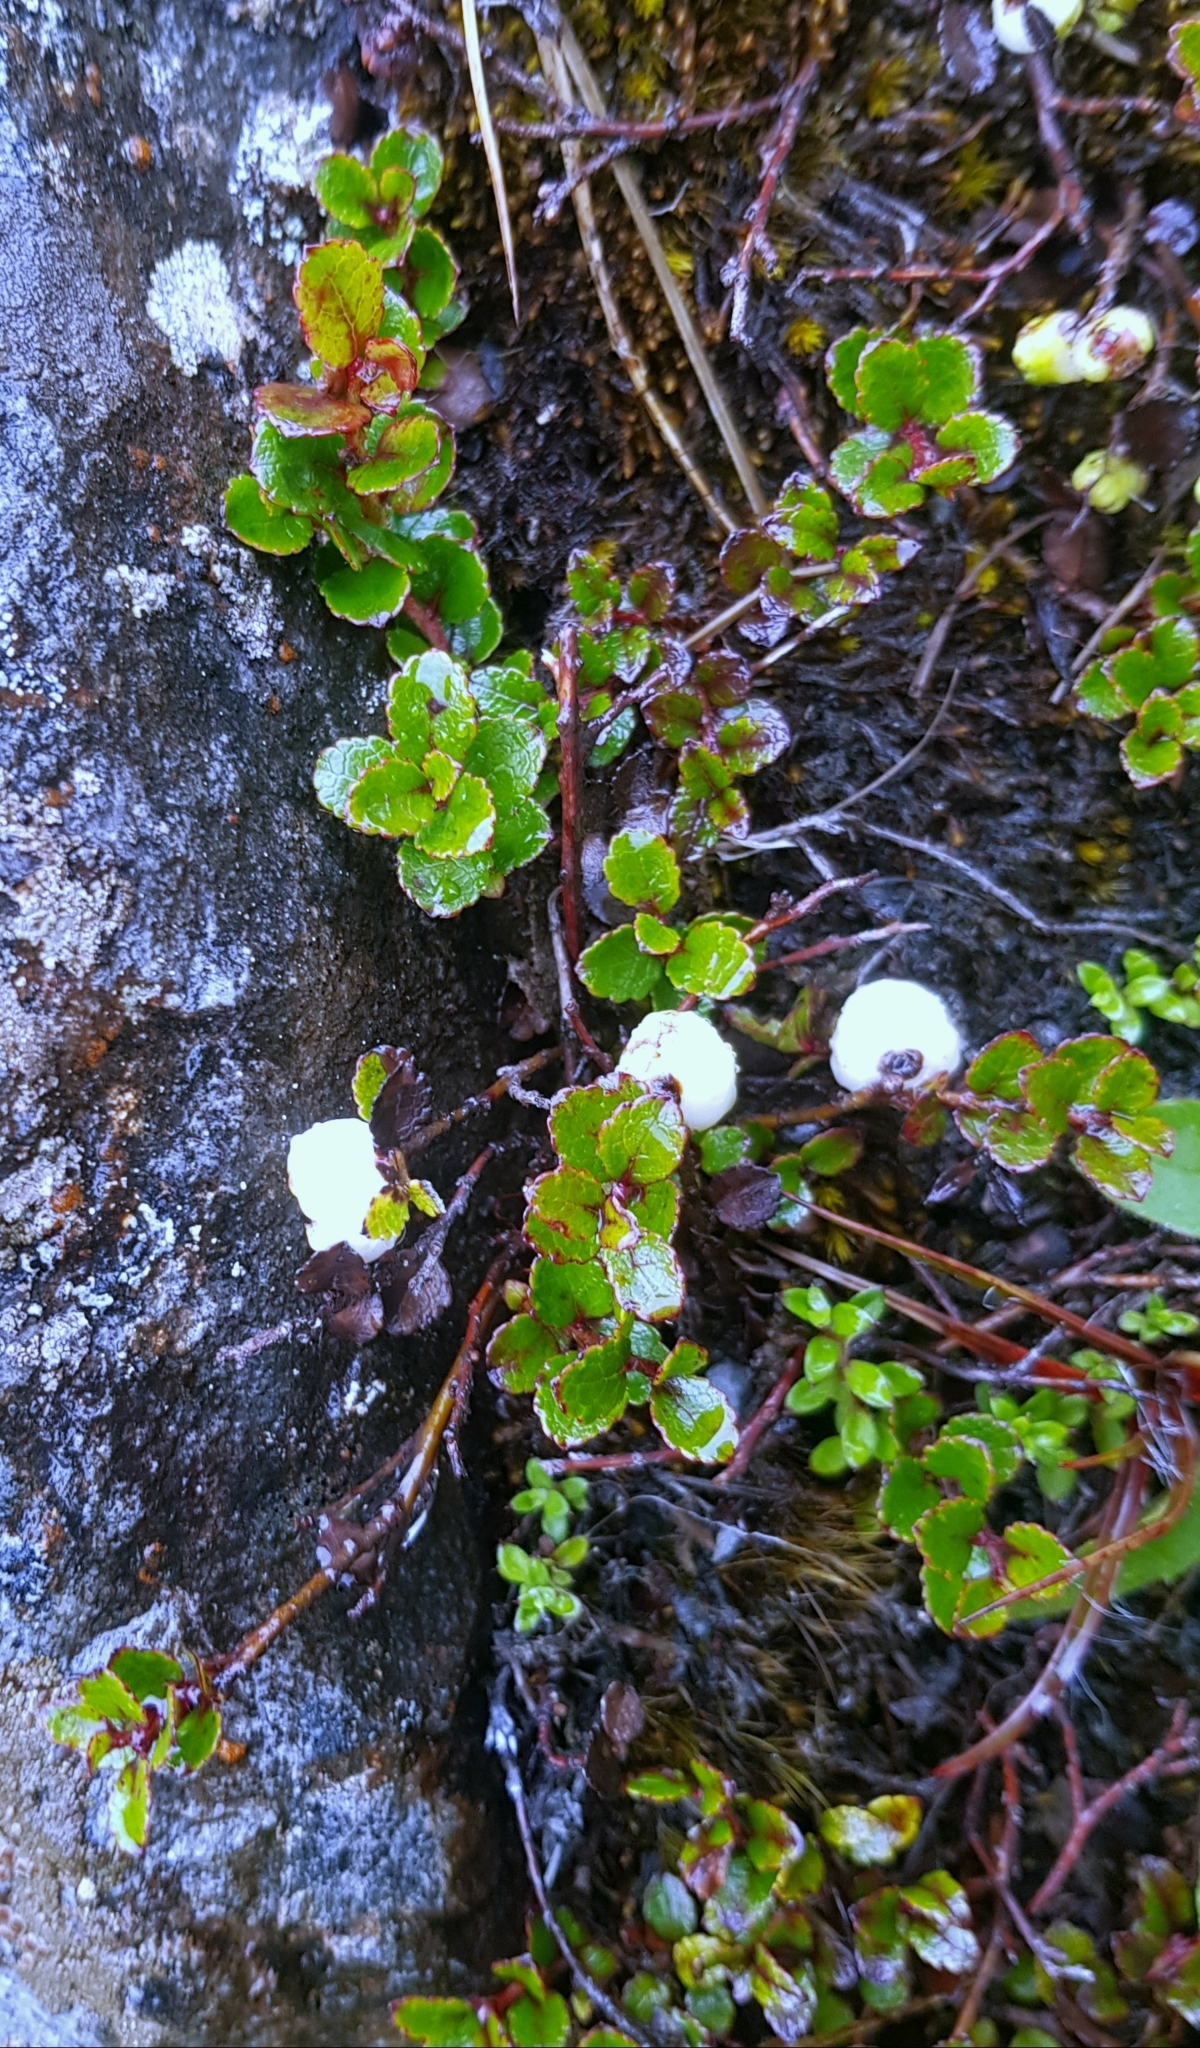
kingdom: Plantae
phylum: Tracheophyta
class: Magnoliopsida
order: Ericales
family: Ericaceae
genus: Gaultheria
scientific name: Gaultheria depressa
